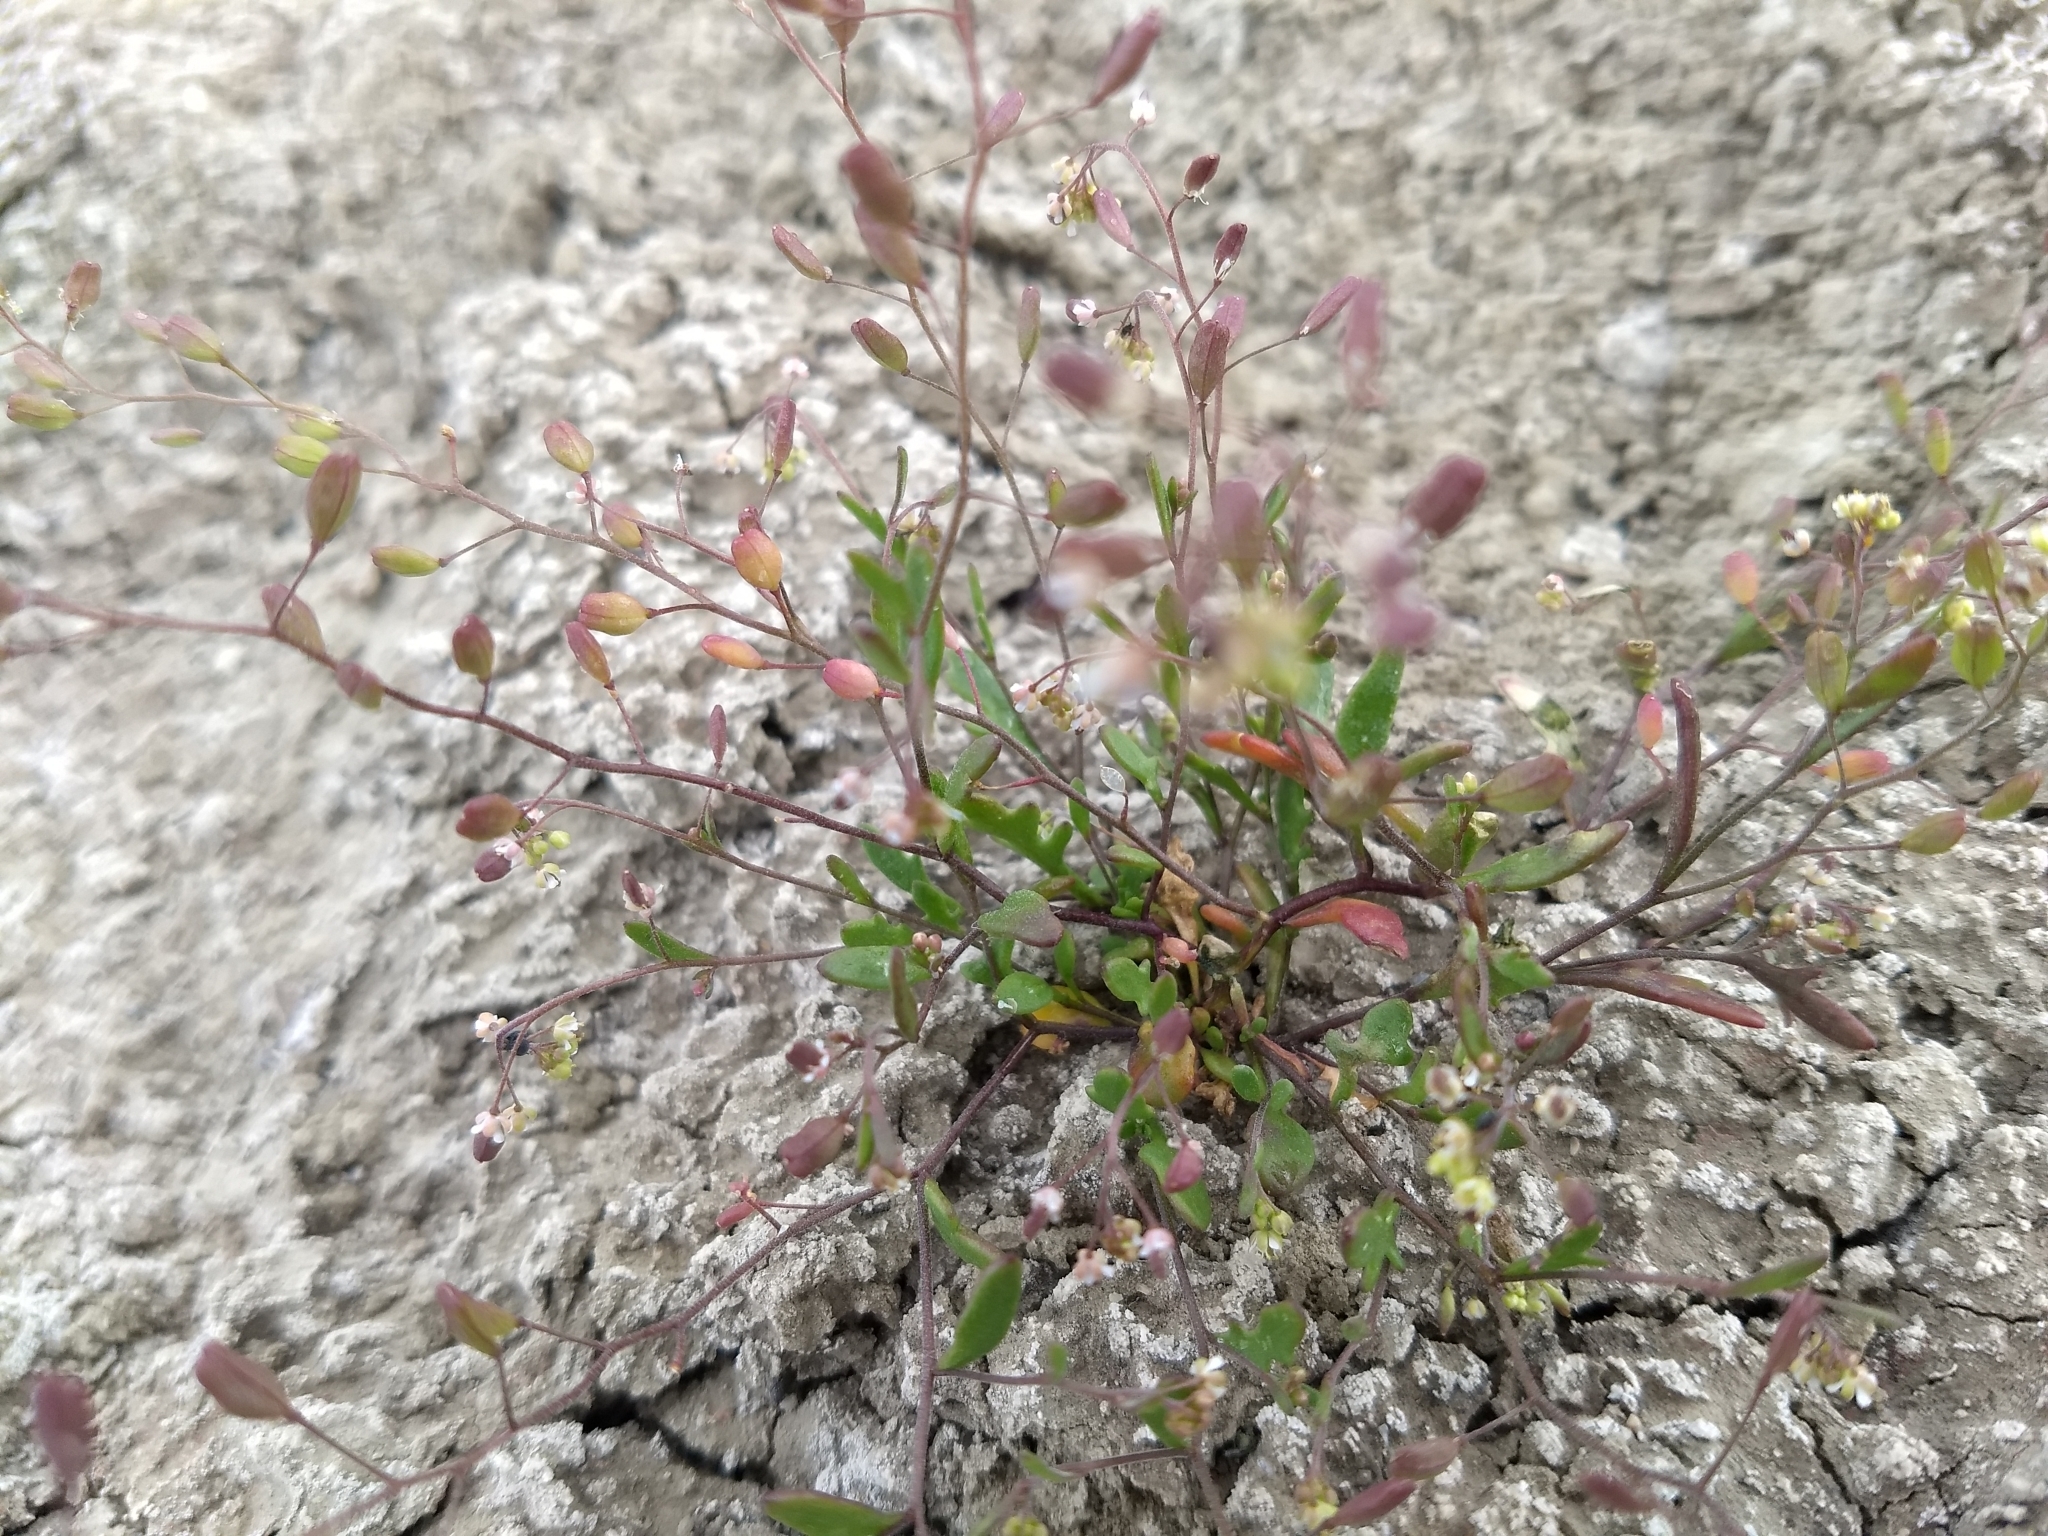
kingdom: Plantae
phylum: Tracheophyta
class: Magnoliopsida
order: Brassicales
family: Brassicaceae
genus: Lepidium
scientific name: Lepidium jaredii
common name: Jared's peppergrass
